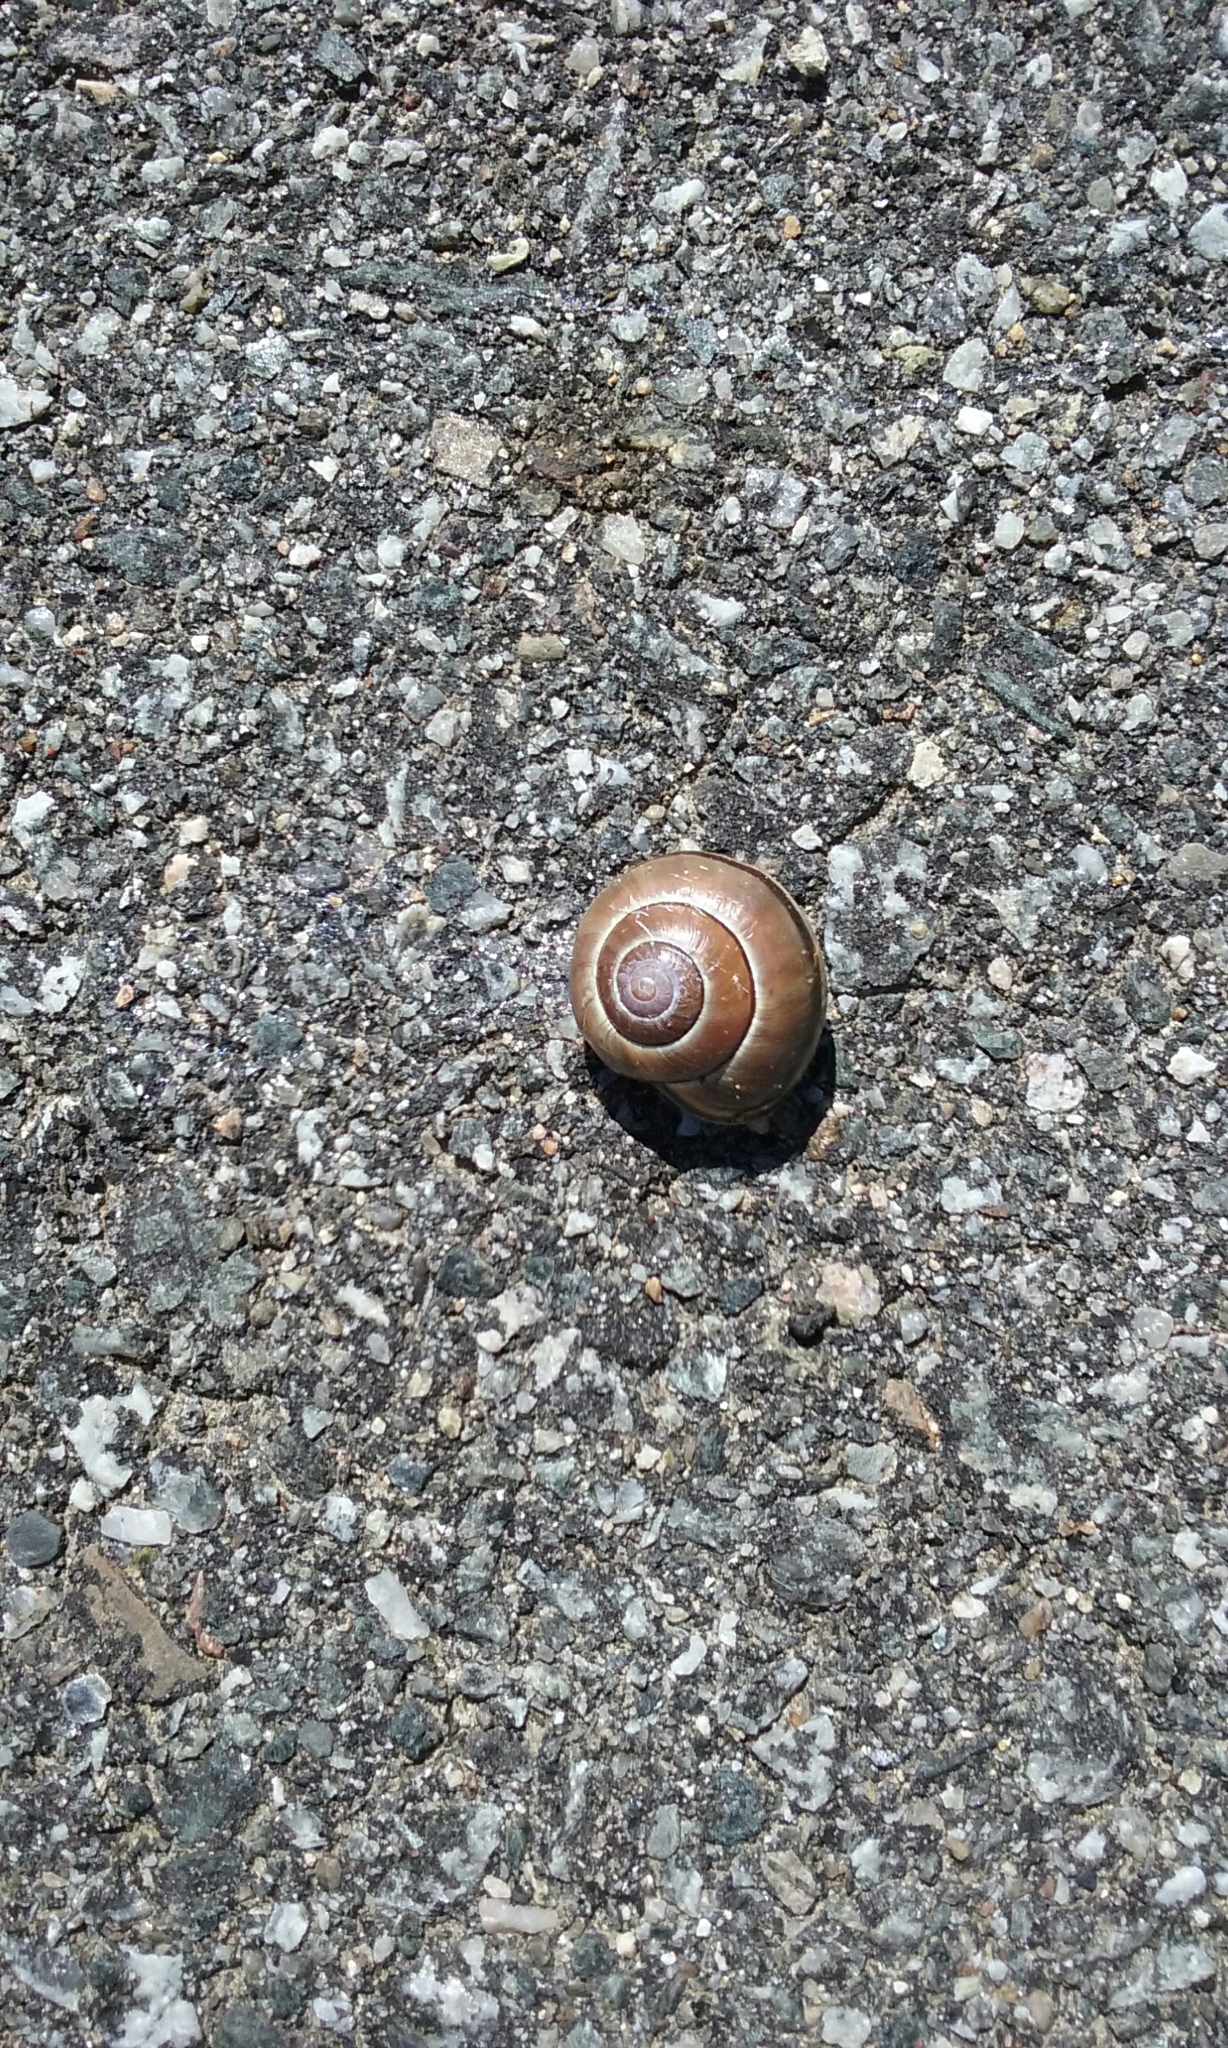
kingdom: Animalia
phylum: Mollusca
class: Gastropoda
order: Stylommatophora
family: Helicidae
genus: Cepaea
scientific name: Cepaea nemoralis
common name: Grovesnail
